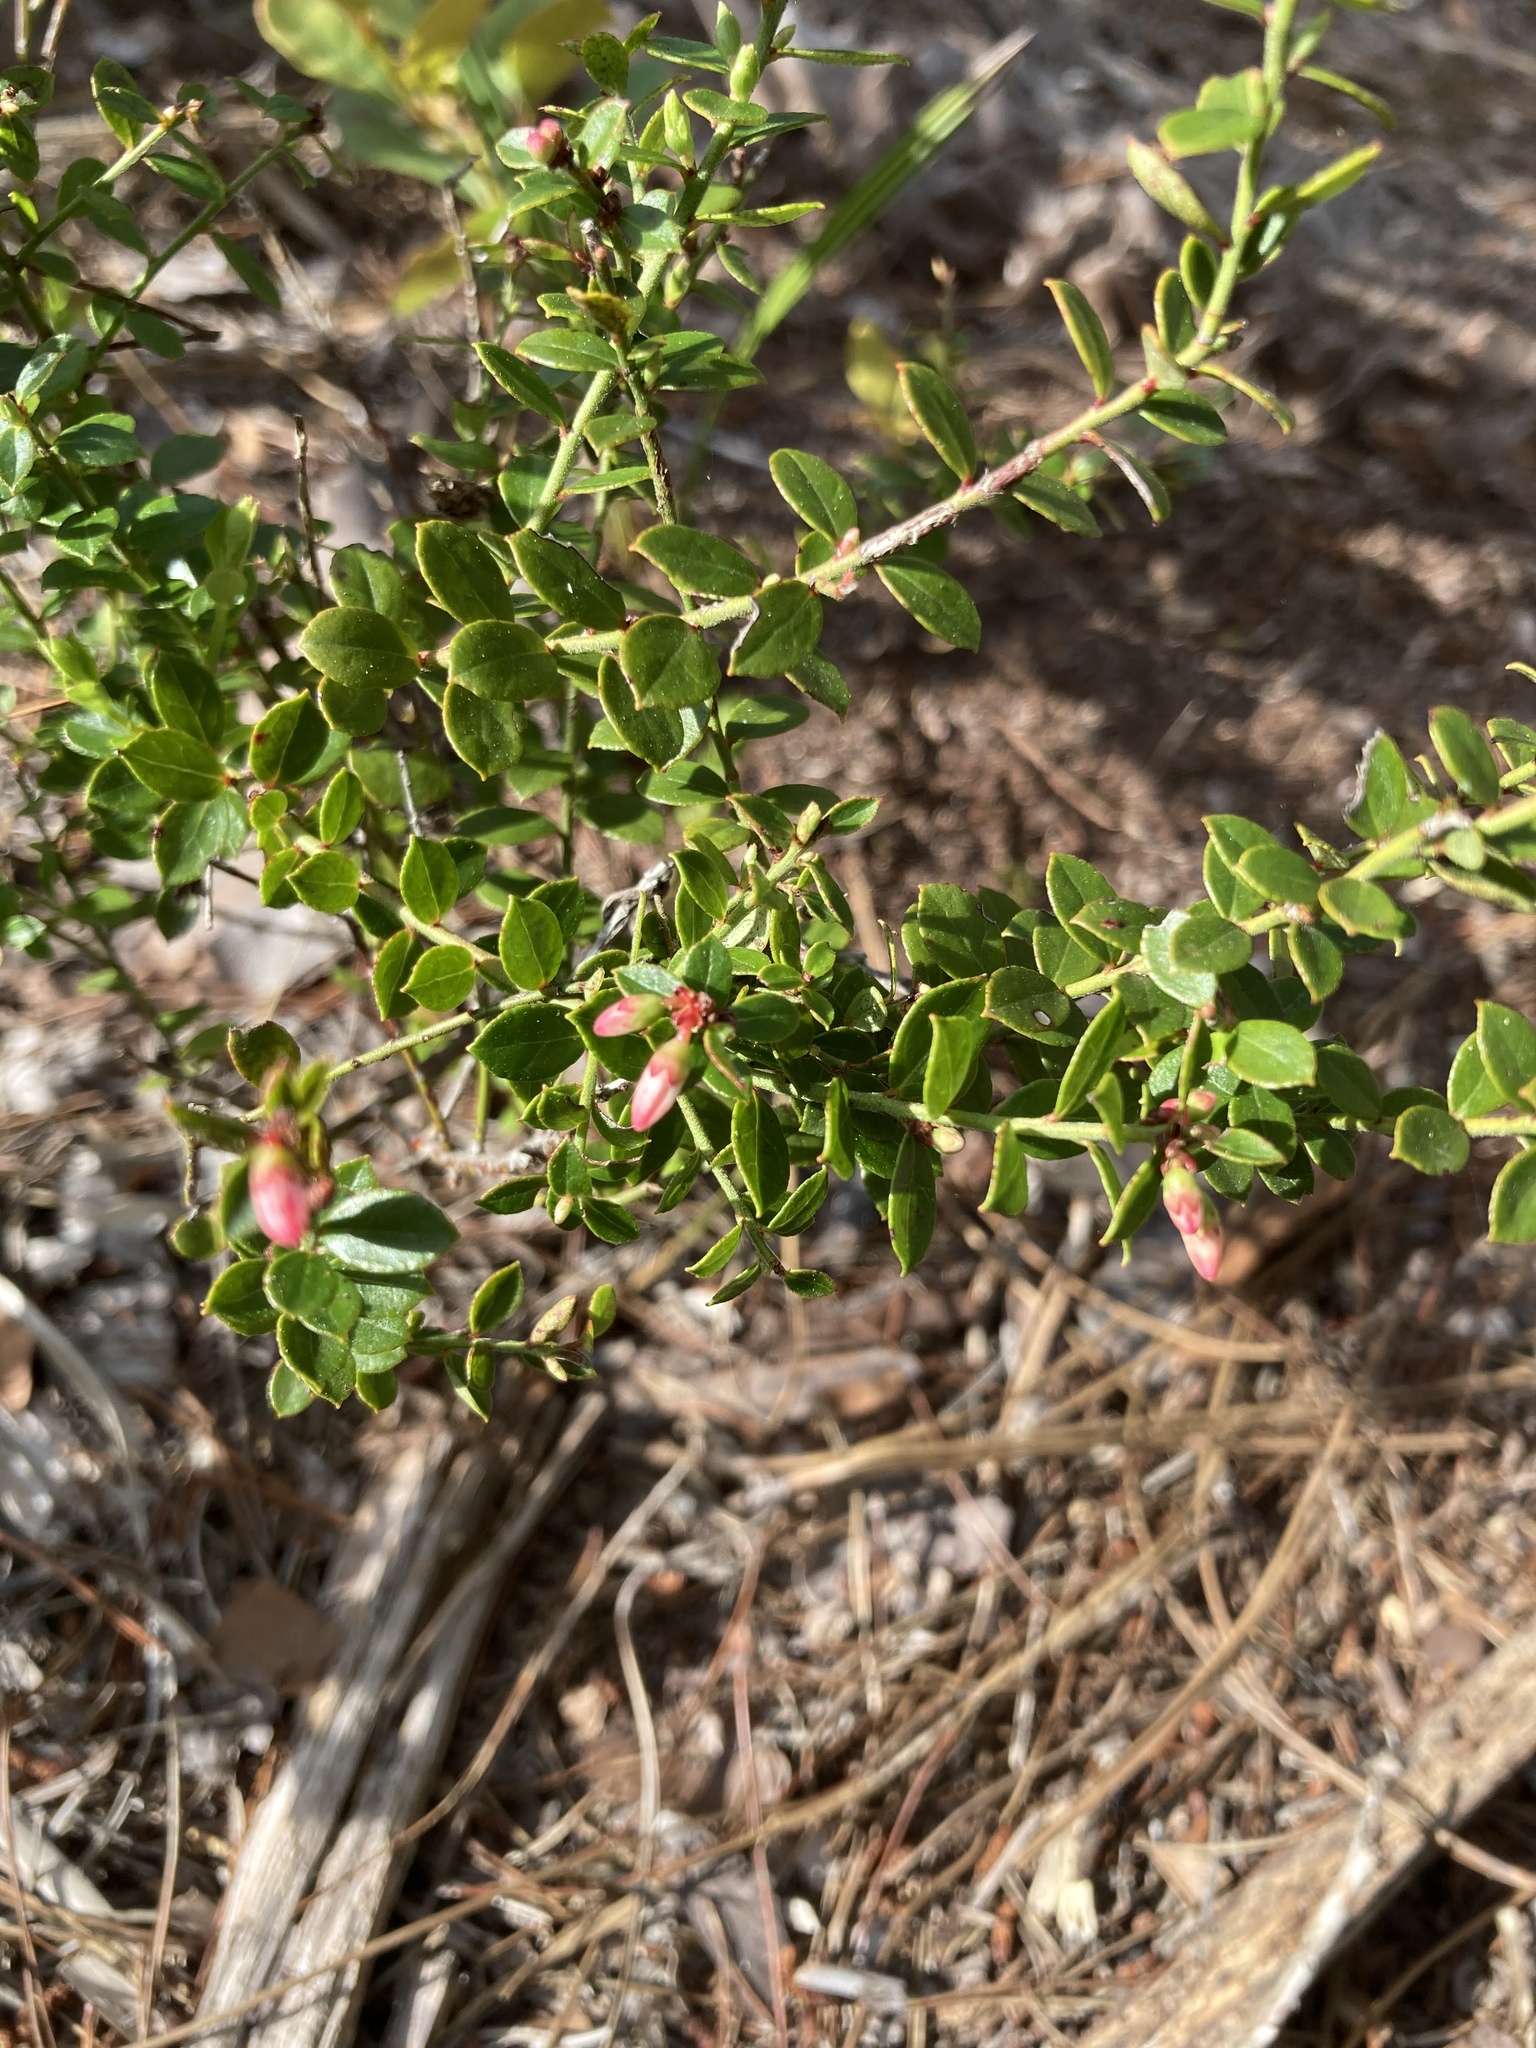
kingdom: Plantae
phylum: Tracheophyta
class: Magnoliopsida
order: Ericales
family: Ericaceae
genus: Vaccinium
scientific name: Vaccinium myrsinites
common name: Evergreen blueberry
